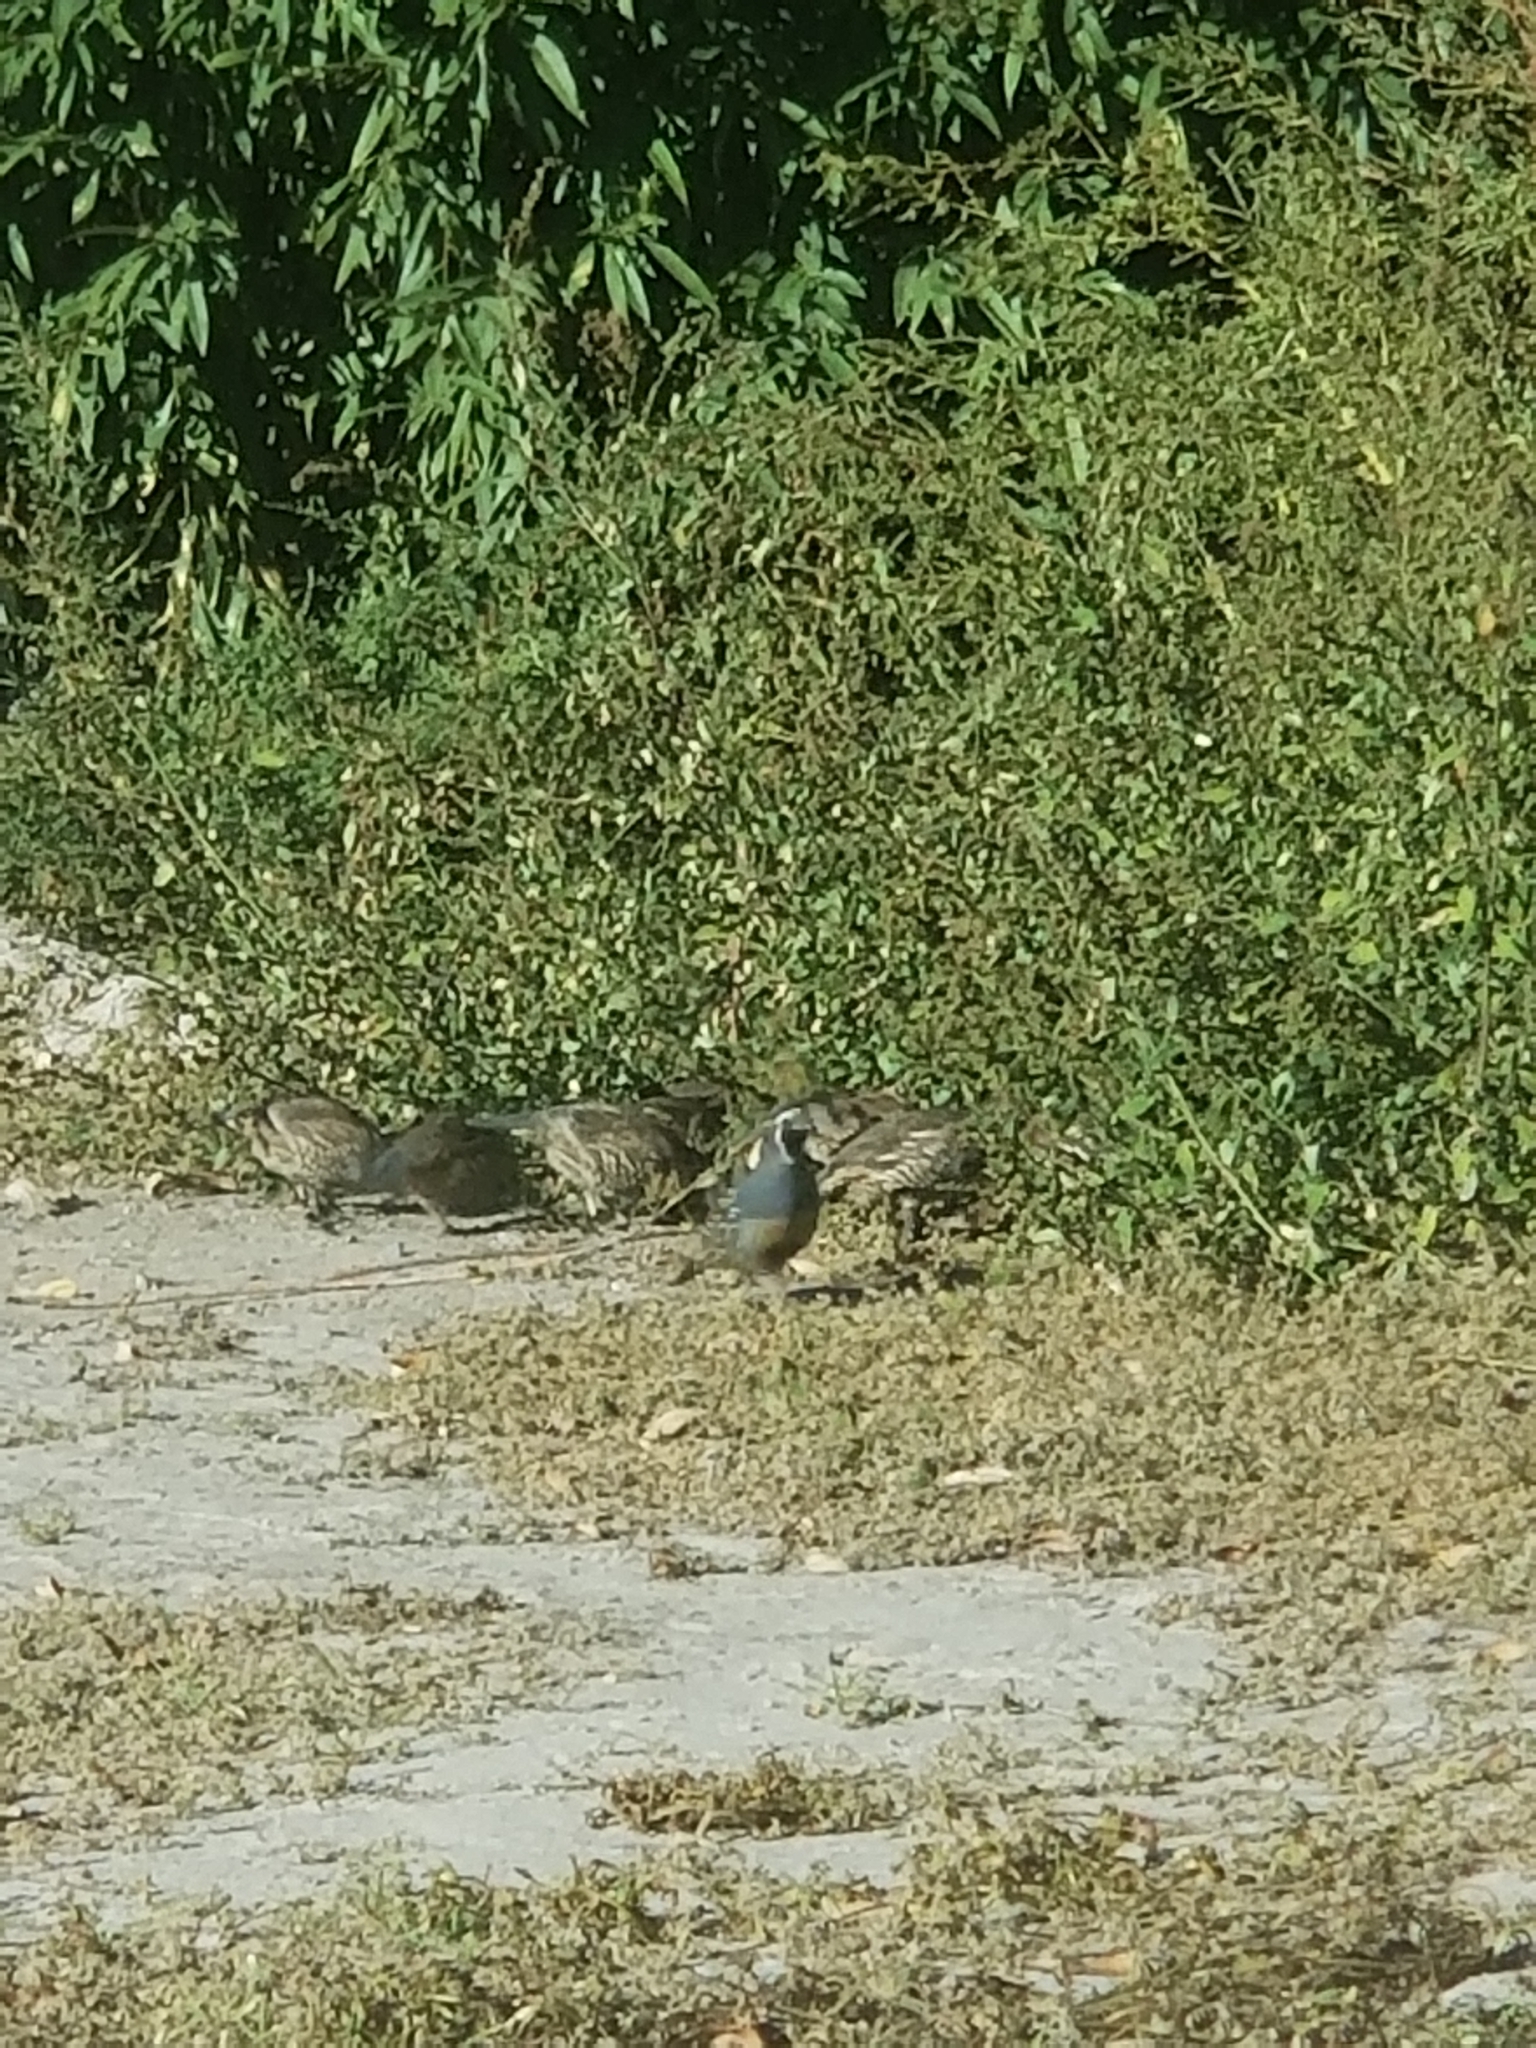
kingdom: Animalia
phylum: Chordata
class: Aves
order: Galliformes
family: Odontophoridae
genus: Callipepla
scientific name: Callipepla californica
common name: California quail
